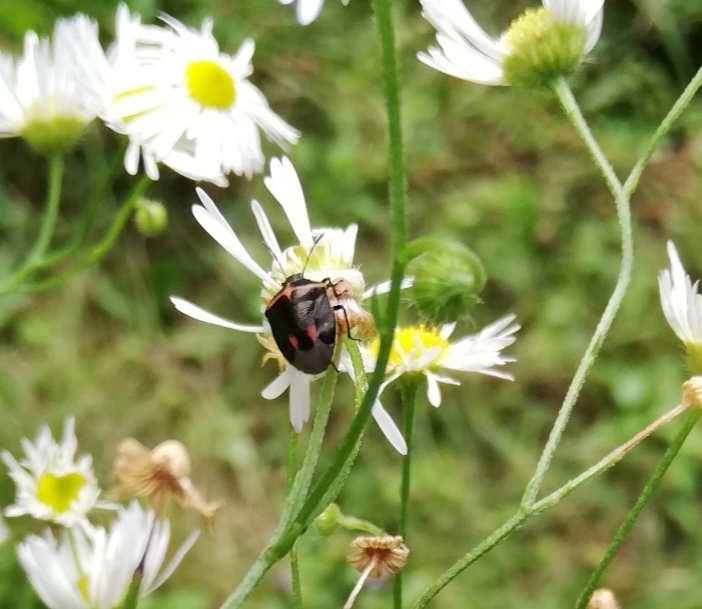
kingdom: Animalia
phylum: Arthropoda
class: Insecta
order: Hemiptera
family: Pentatomidae
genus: Cosmopepla
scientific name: Cosmopepla lintneriana
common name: Twice-stabbed stink bug
